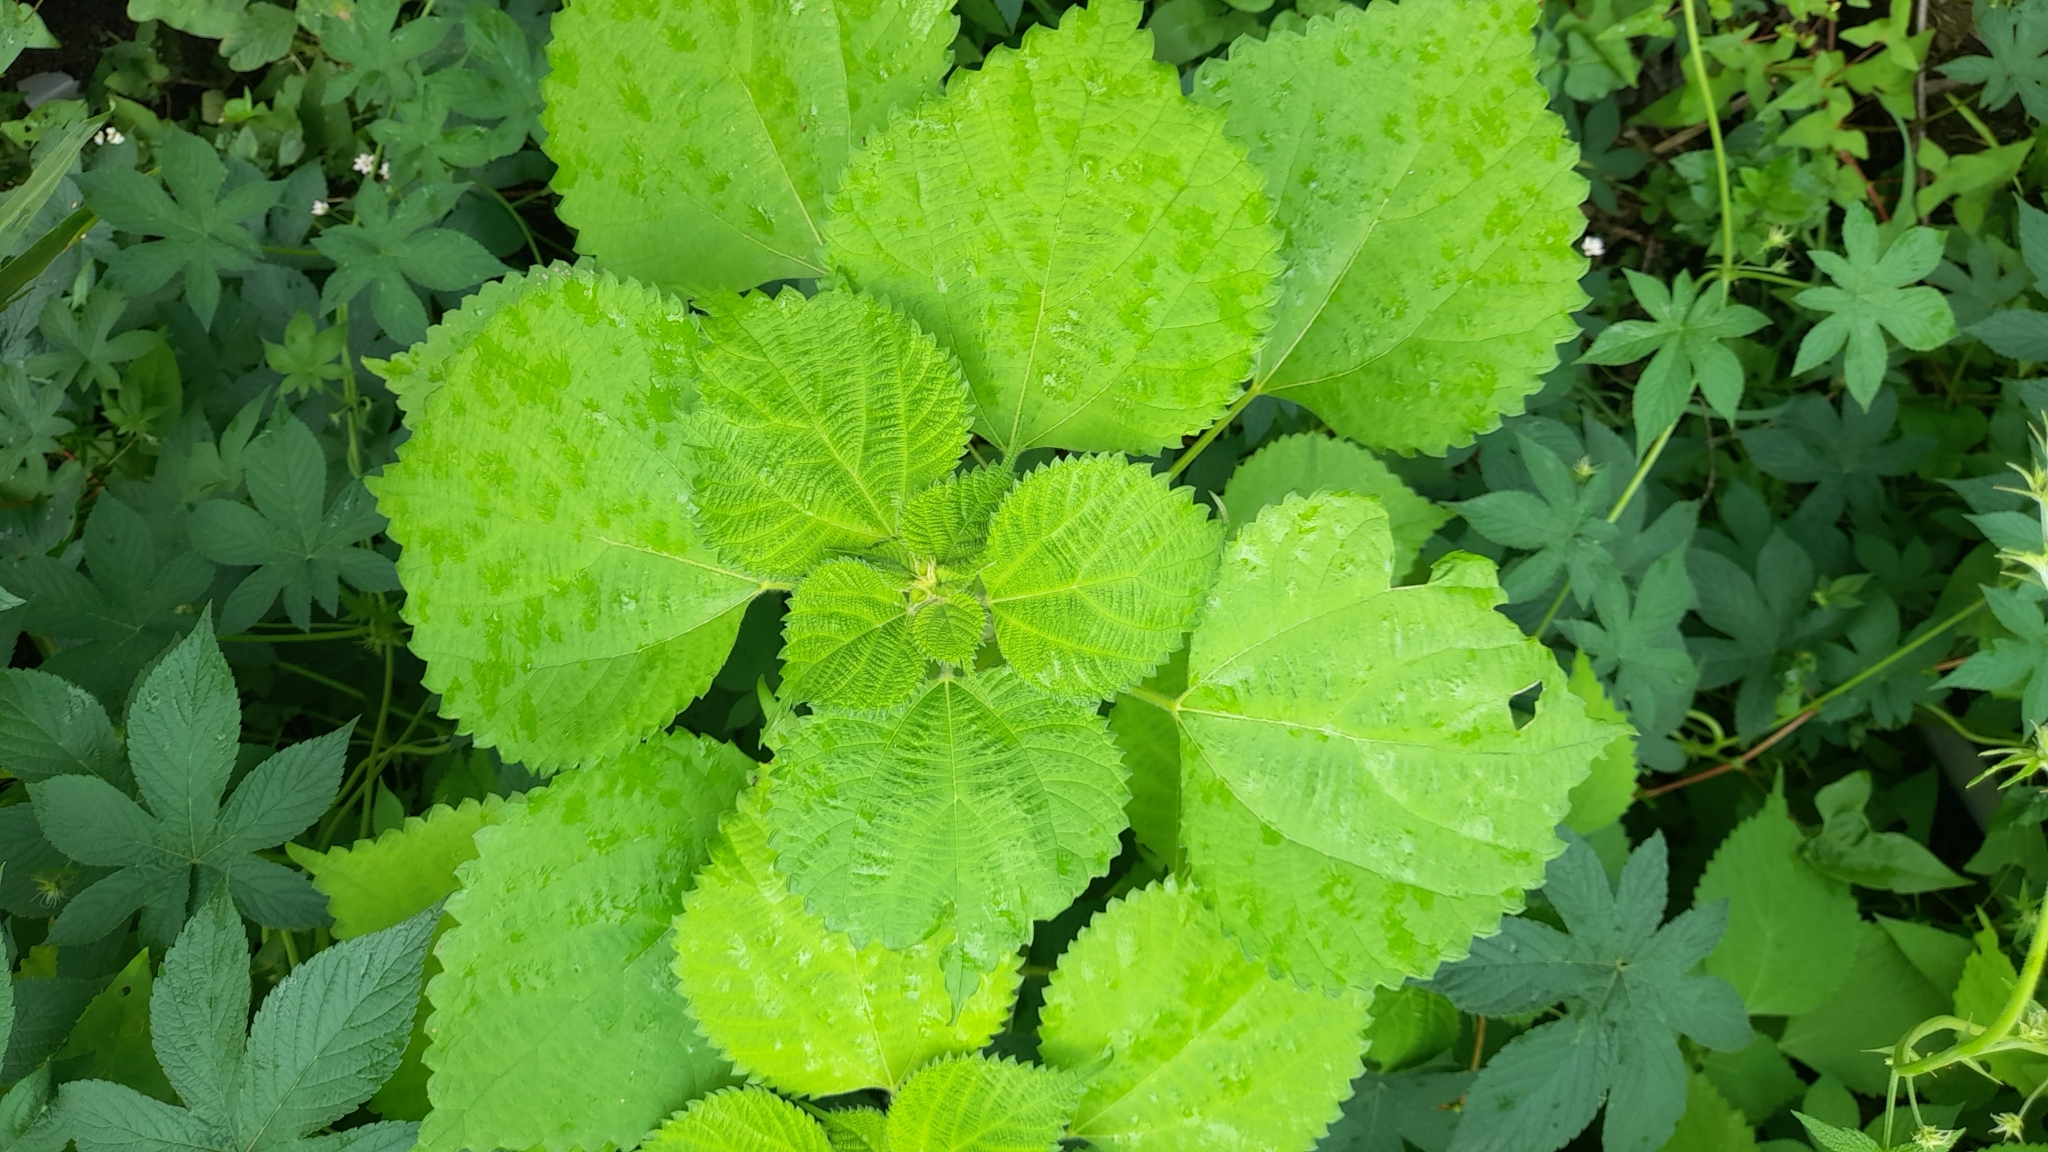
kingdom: Plantae
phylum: Tracheophyta
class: Magnoliopsida
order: Rosales
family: Urticaceae
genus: Boehmeria
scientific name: Boehmeria nivea
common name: Ramie chinese grass
